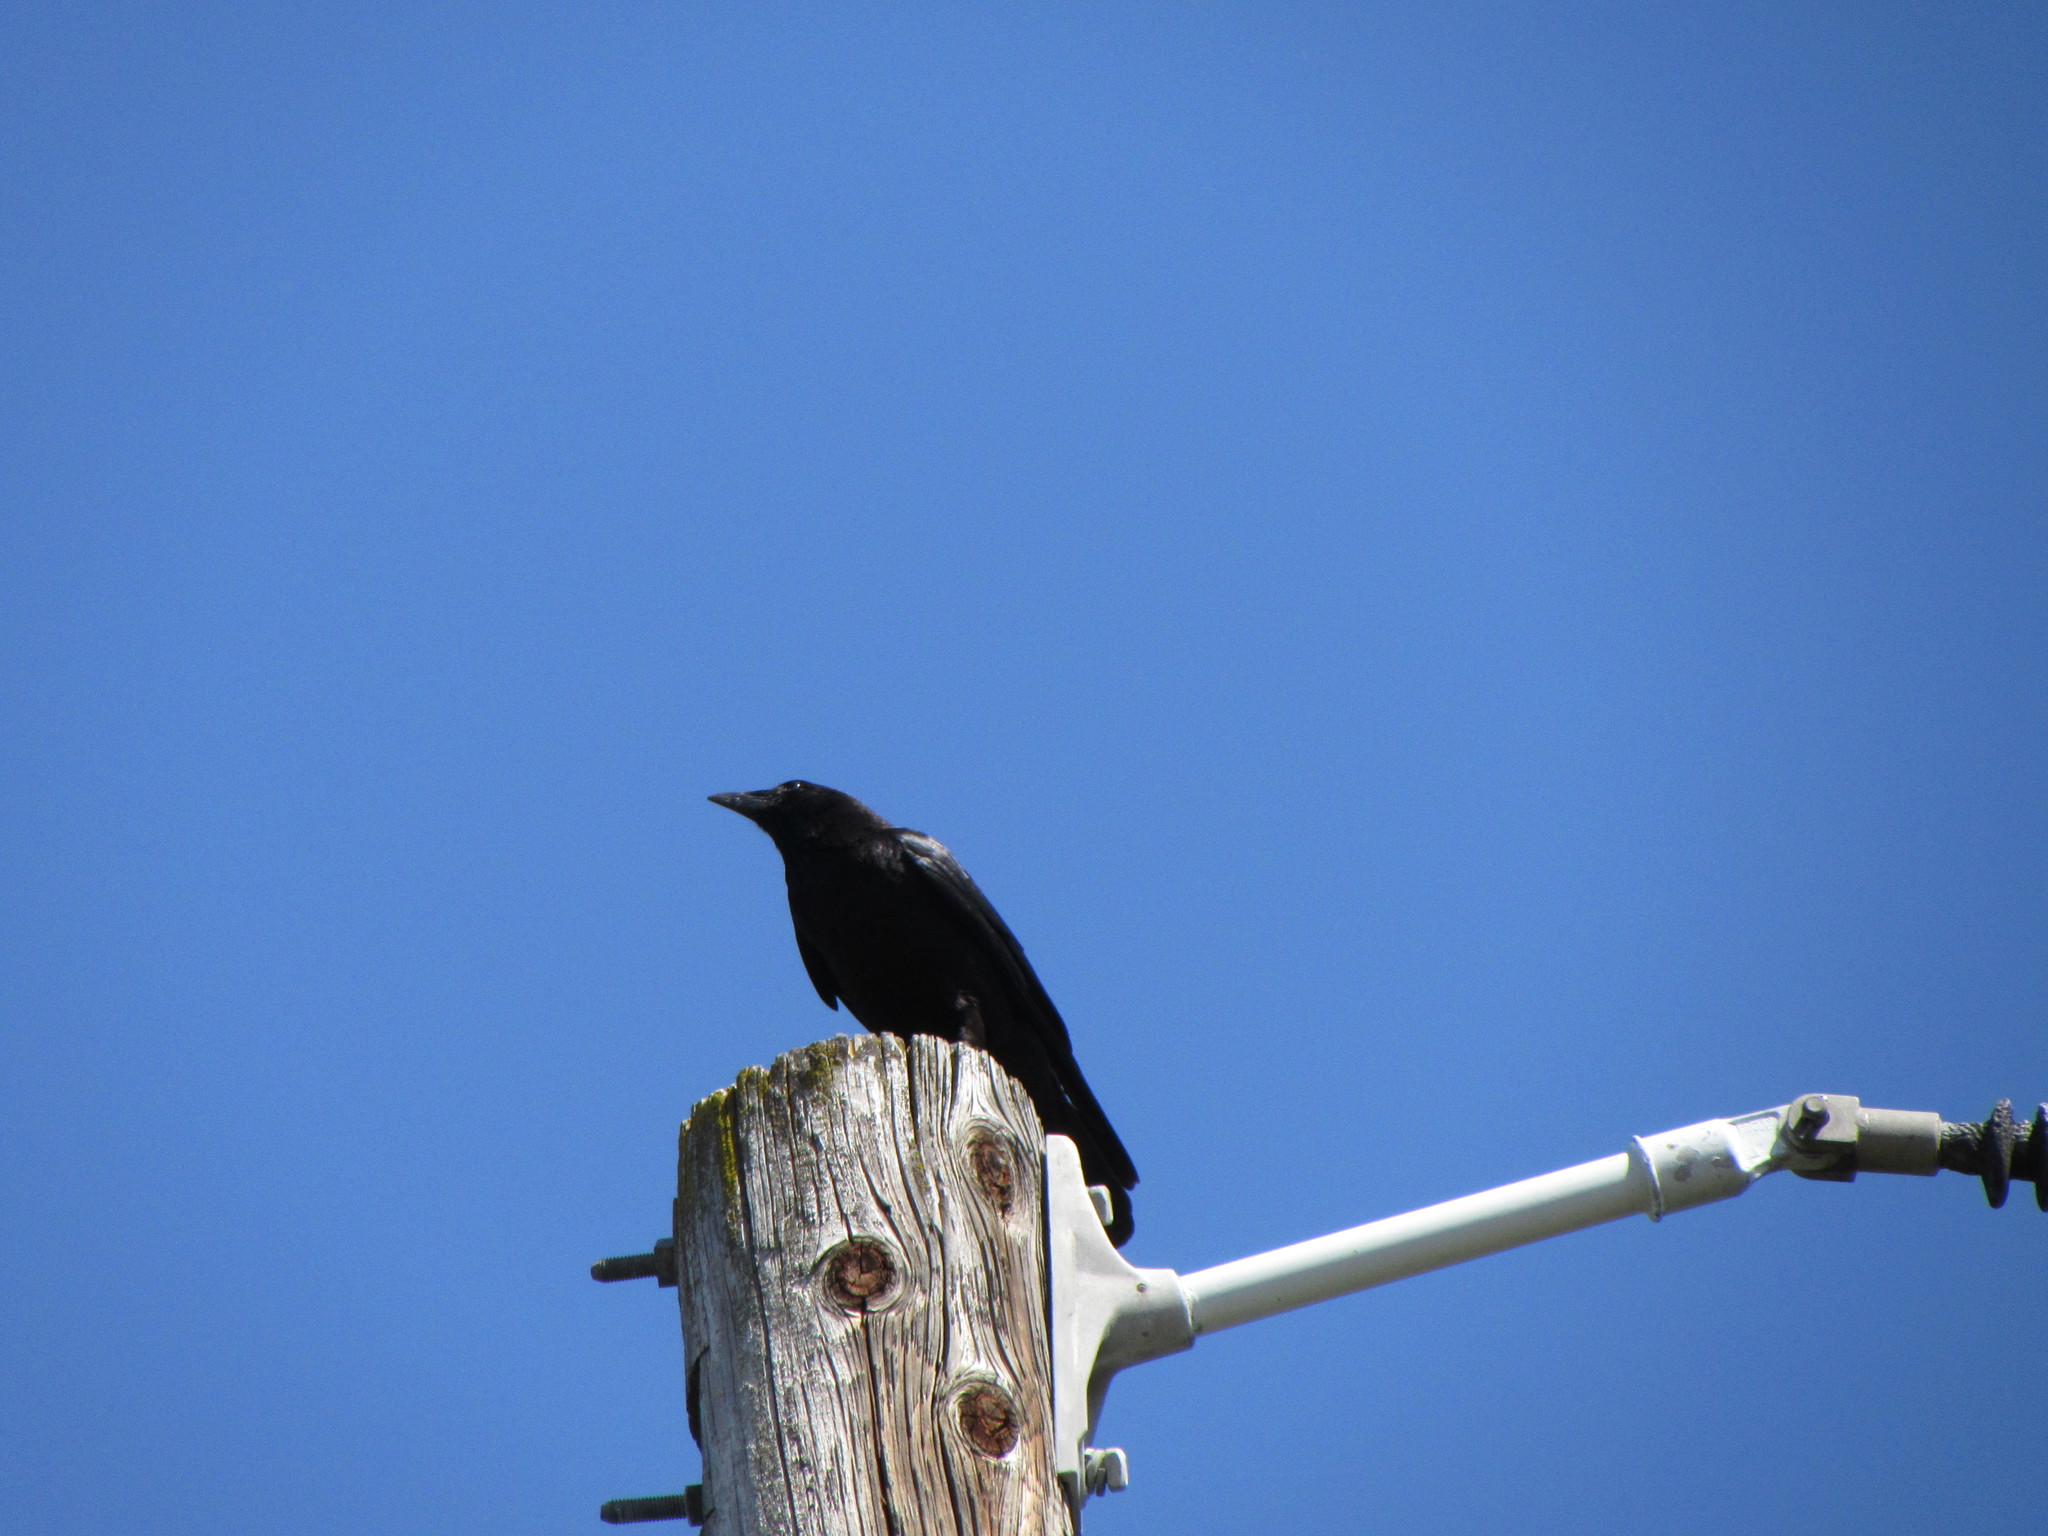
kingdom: Animalia
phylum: Chordata
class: Aves
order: Passeriformes
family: Corvidae
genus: Corvus
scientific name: Corvus brachyrhynchos
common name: American crow
